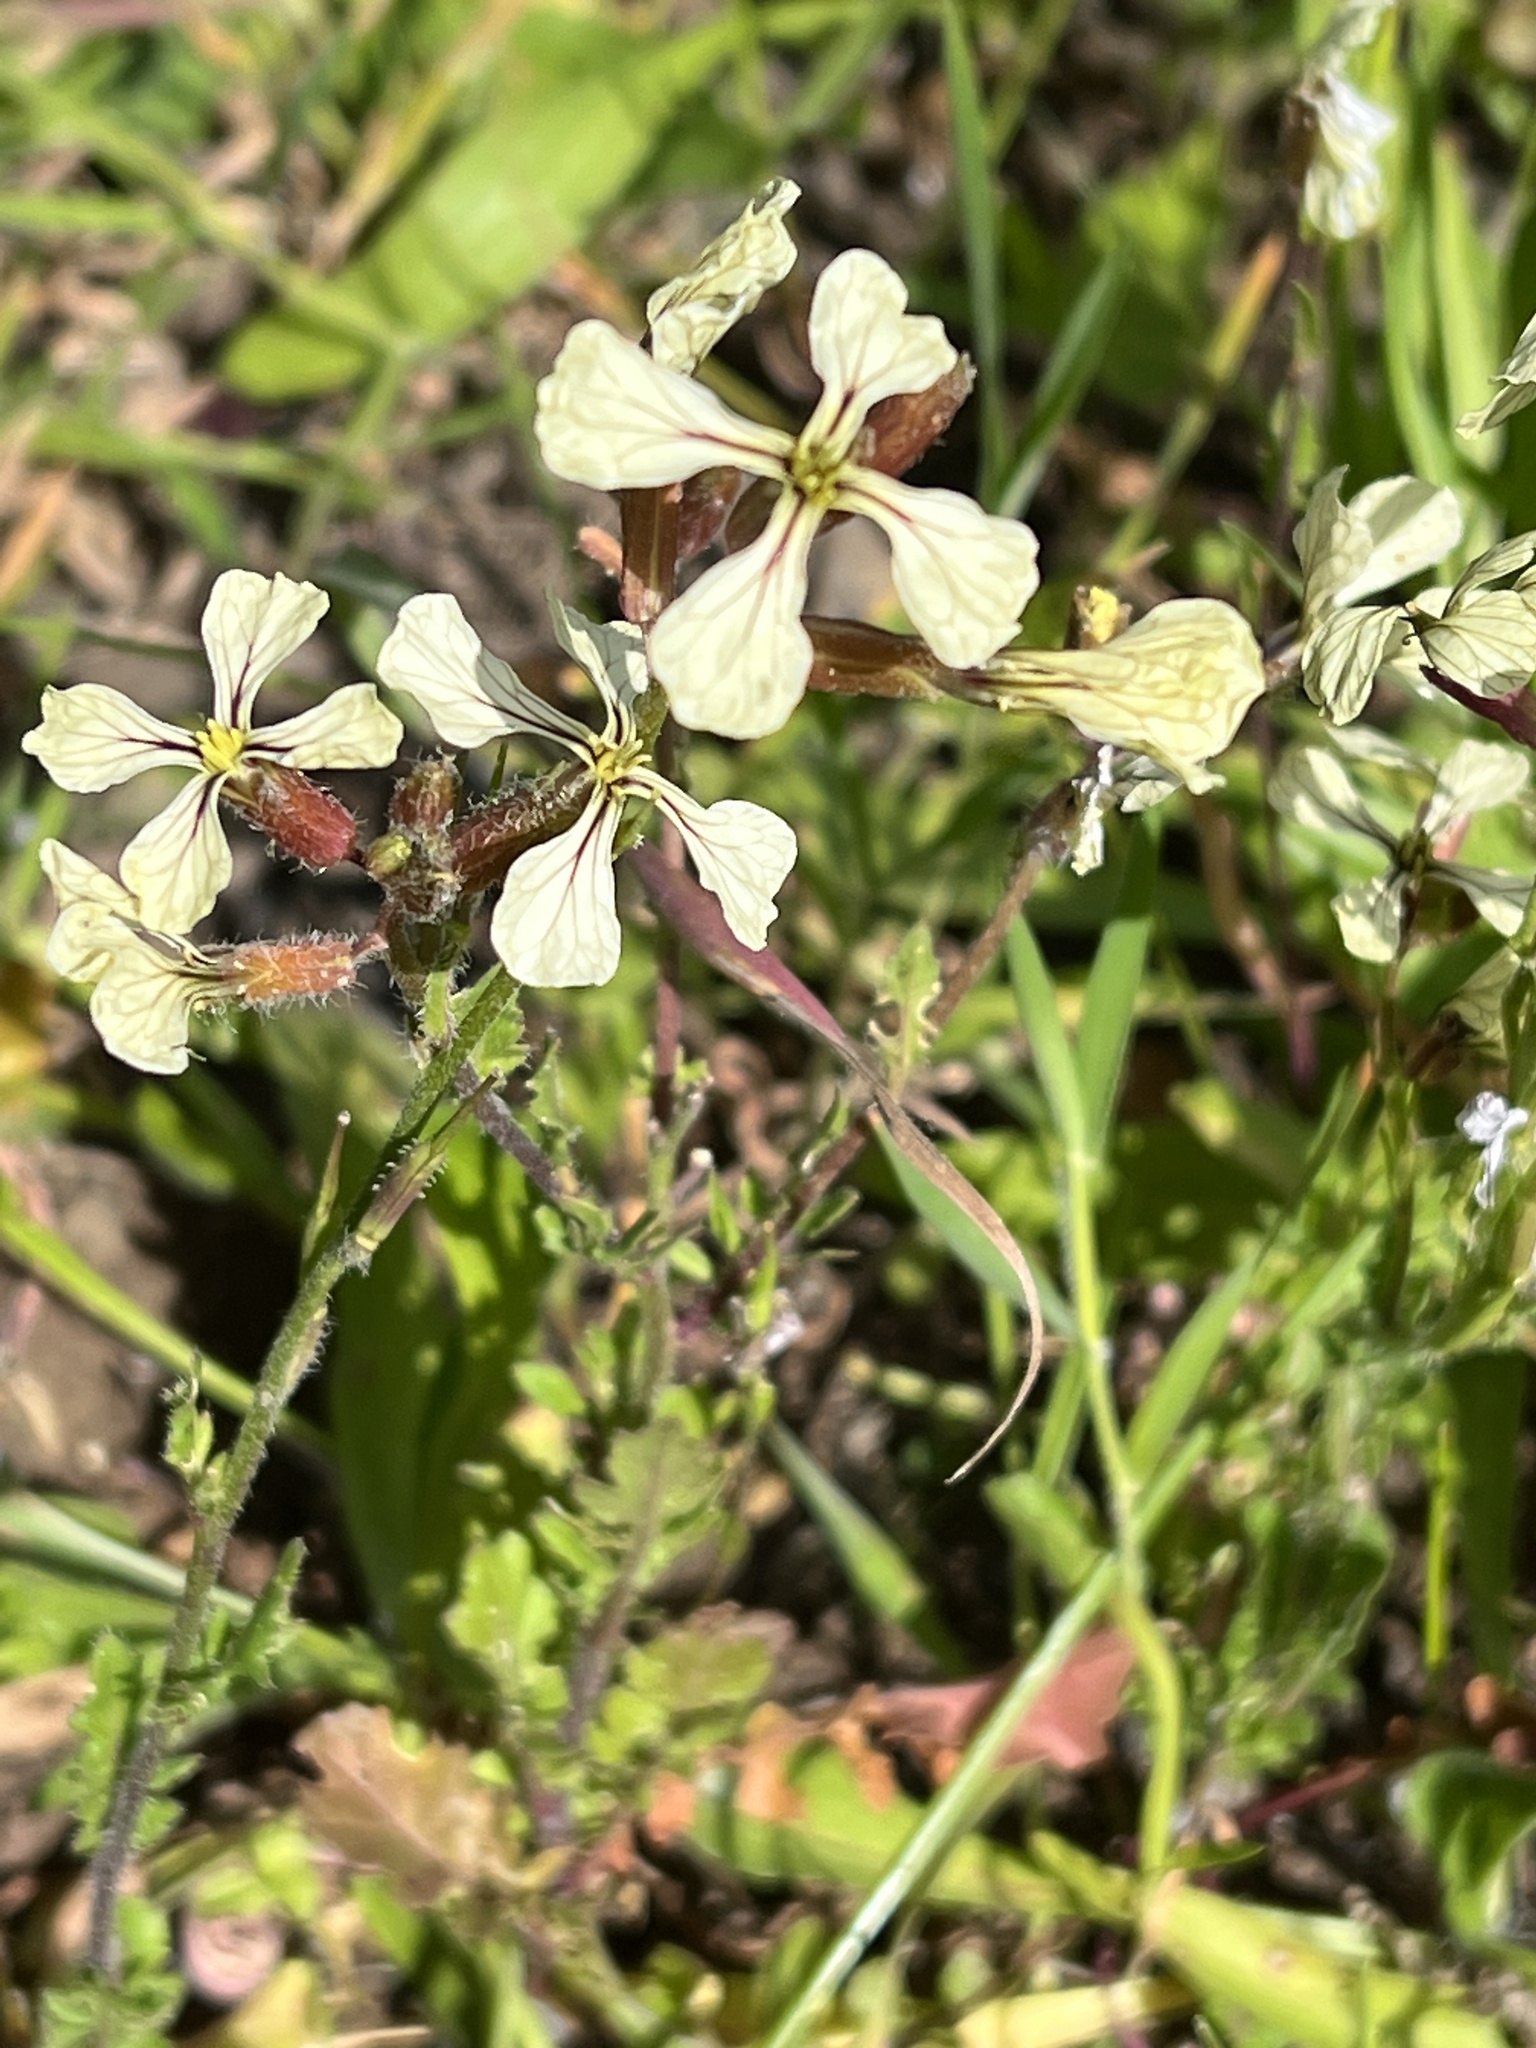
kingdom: Plantae
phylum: Tracheophyta
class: Magnoliopsida
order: Brassicales
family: Brassicaceae
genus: Eruca
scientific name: Eruca vesicaria
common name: Garden rocket
